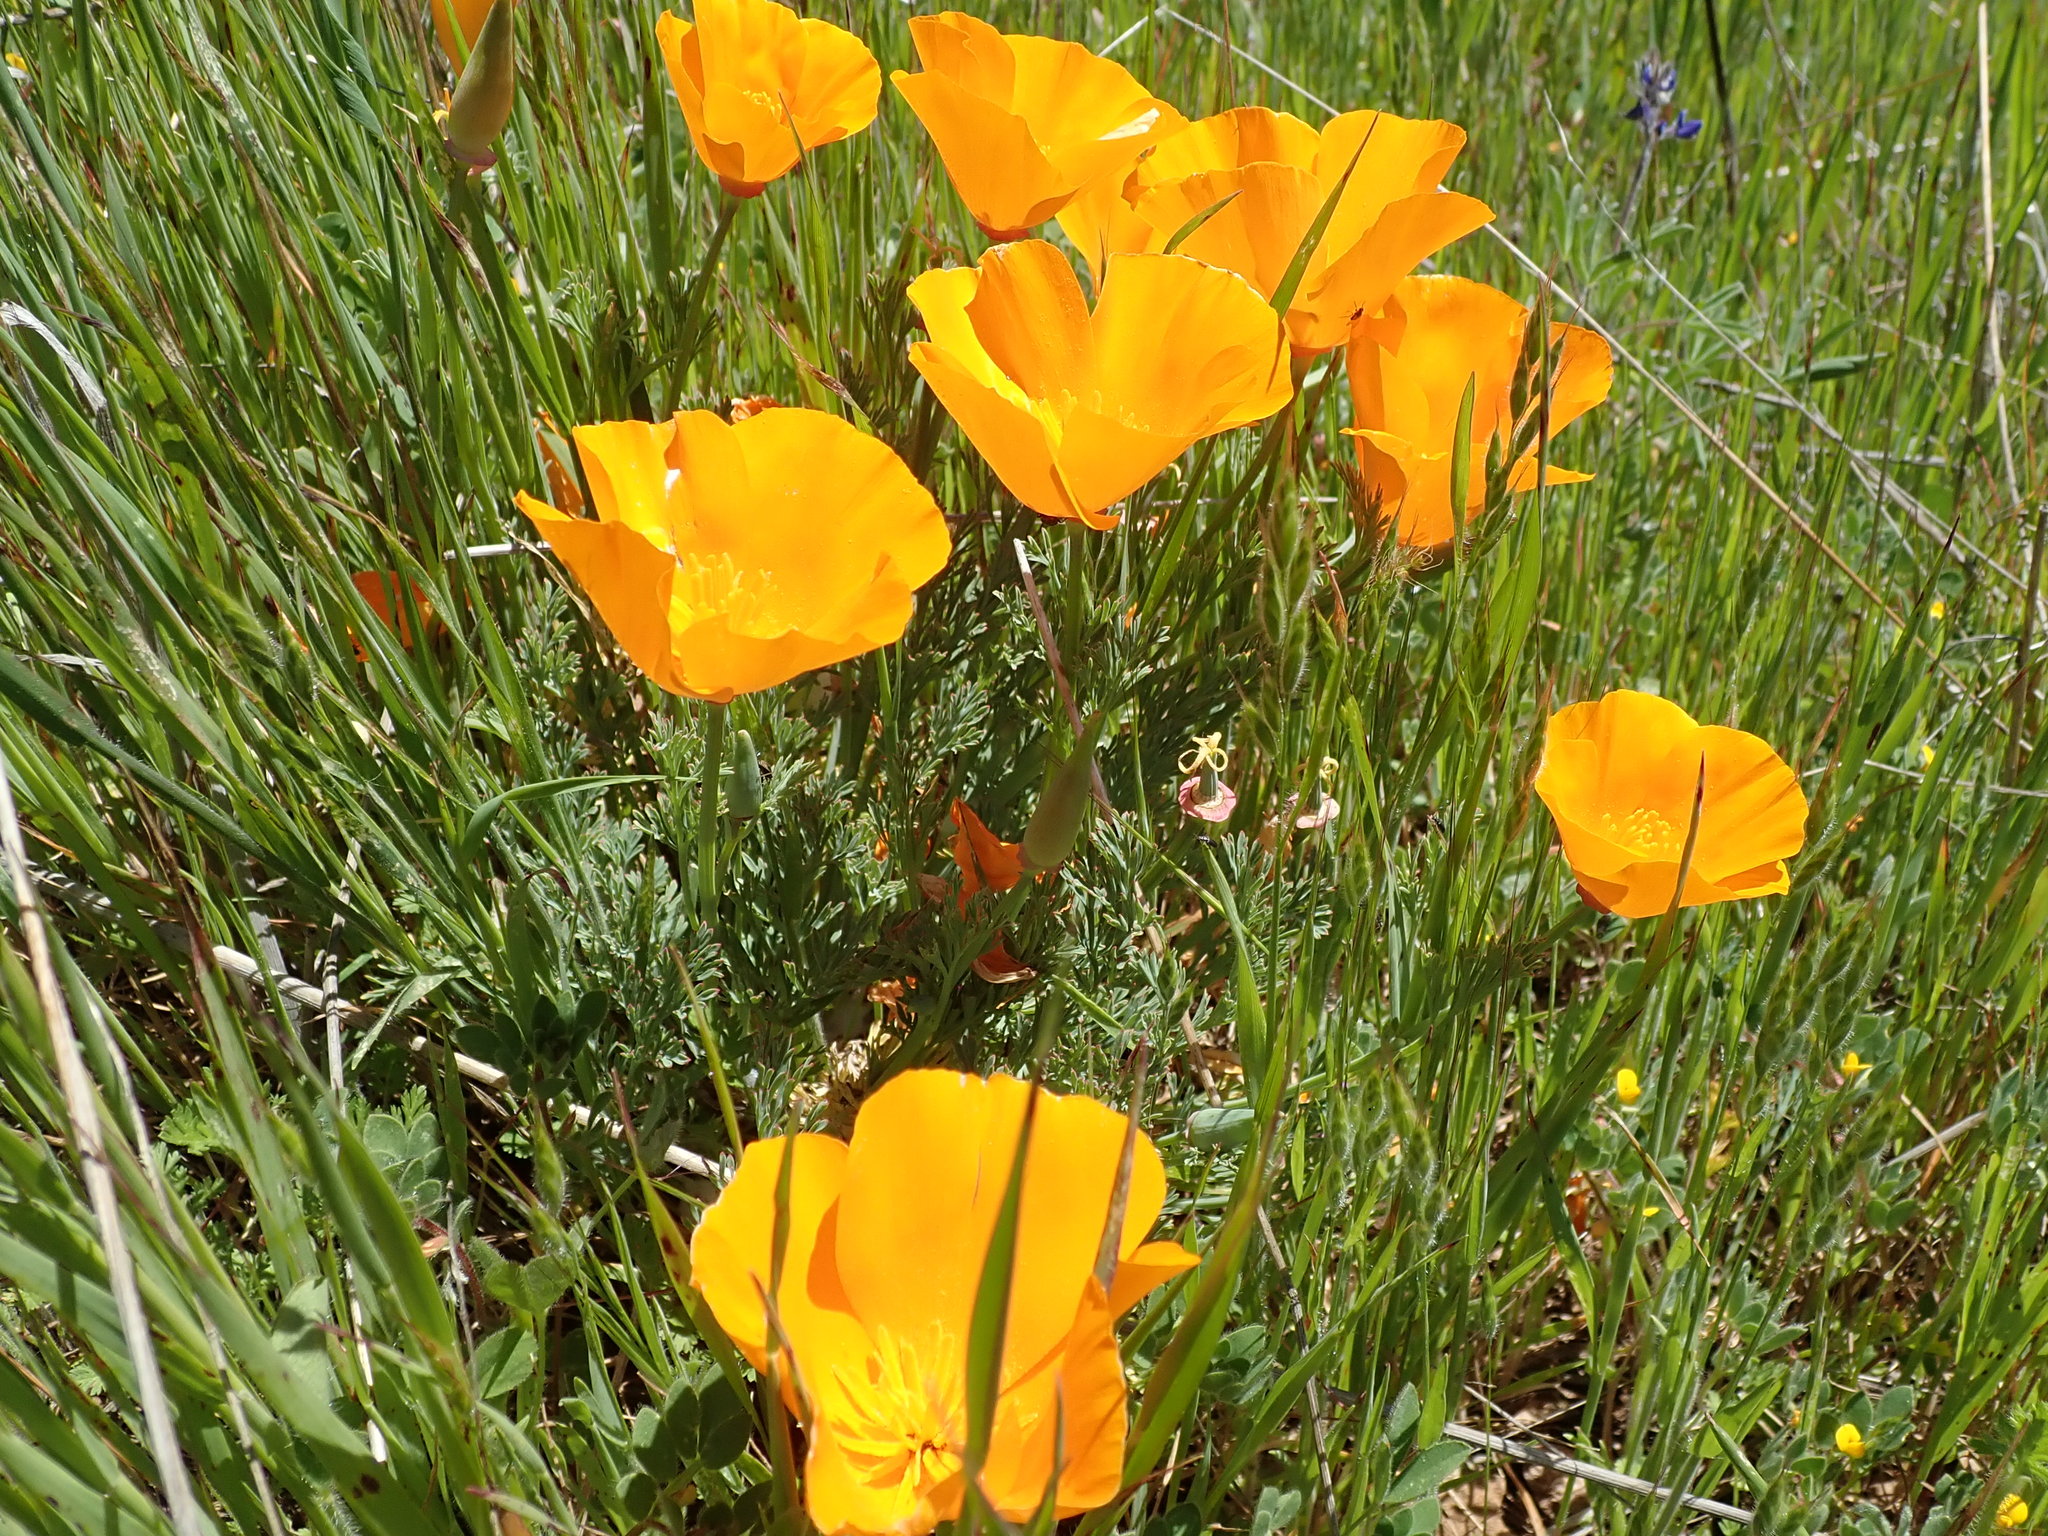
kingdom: Plantae
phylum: Tracheophyta
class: Magnoliopsida
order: Ranunculales
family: Papaveraceae
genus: Eschscholzia
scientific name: Eschscholzia californica
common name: California poppy
